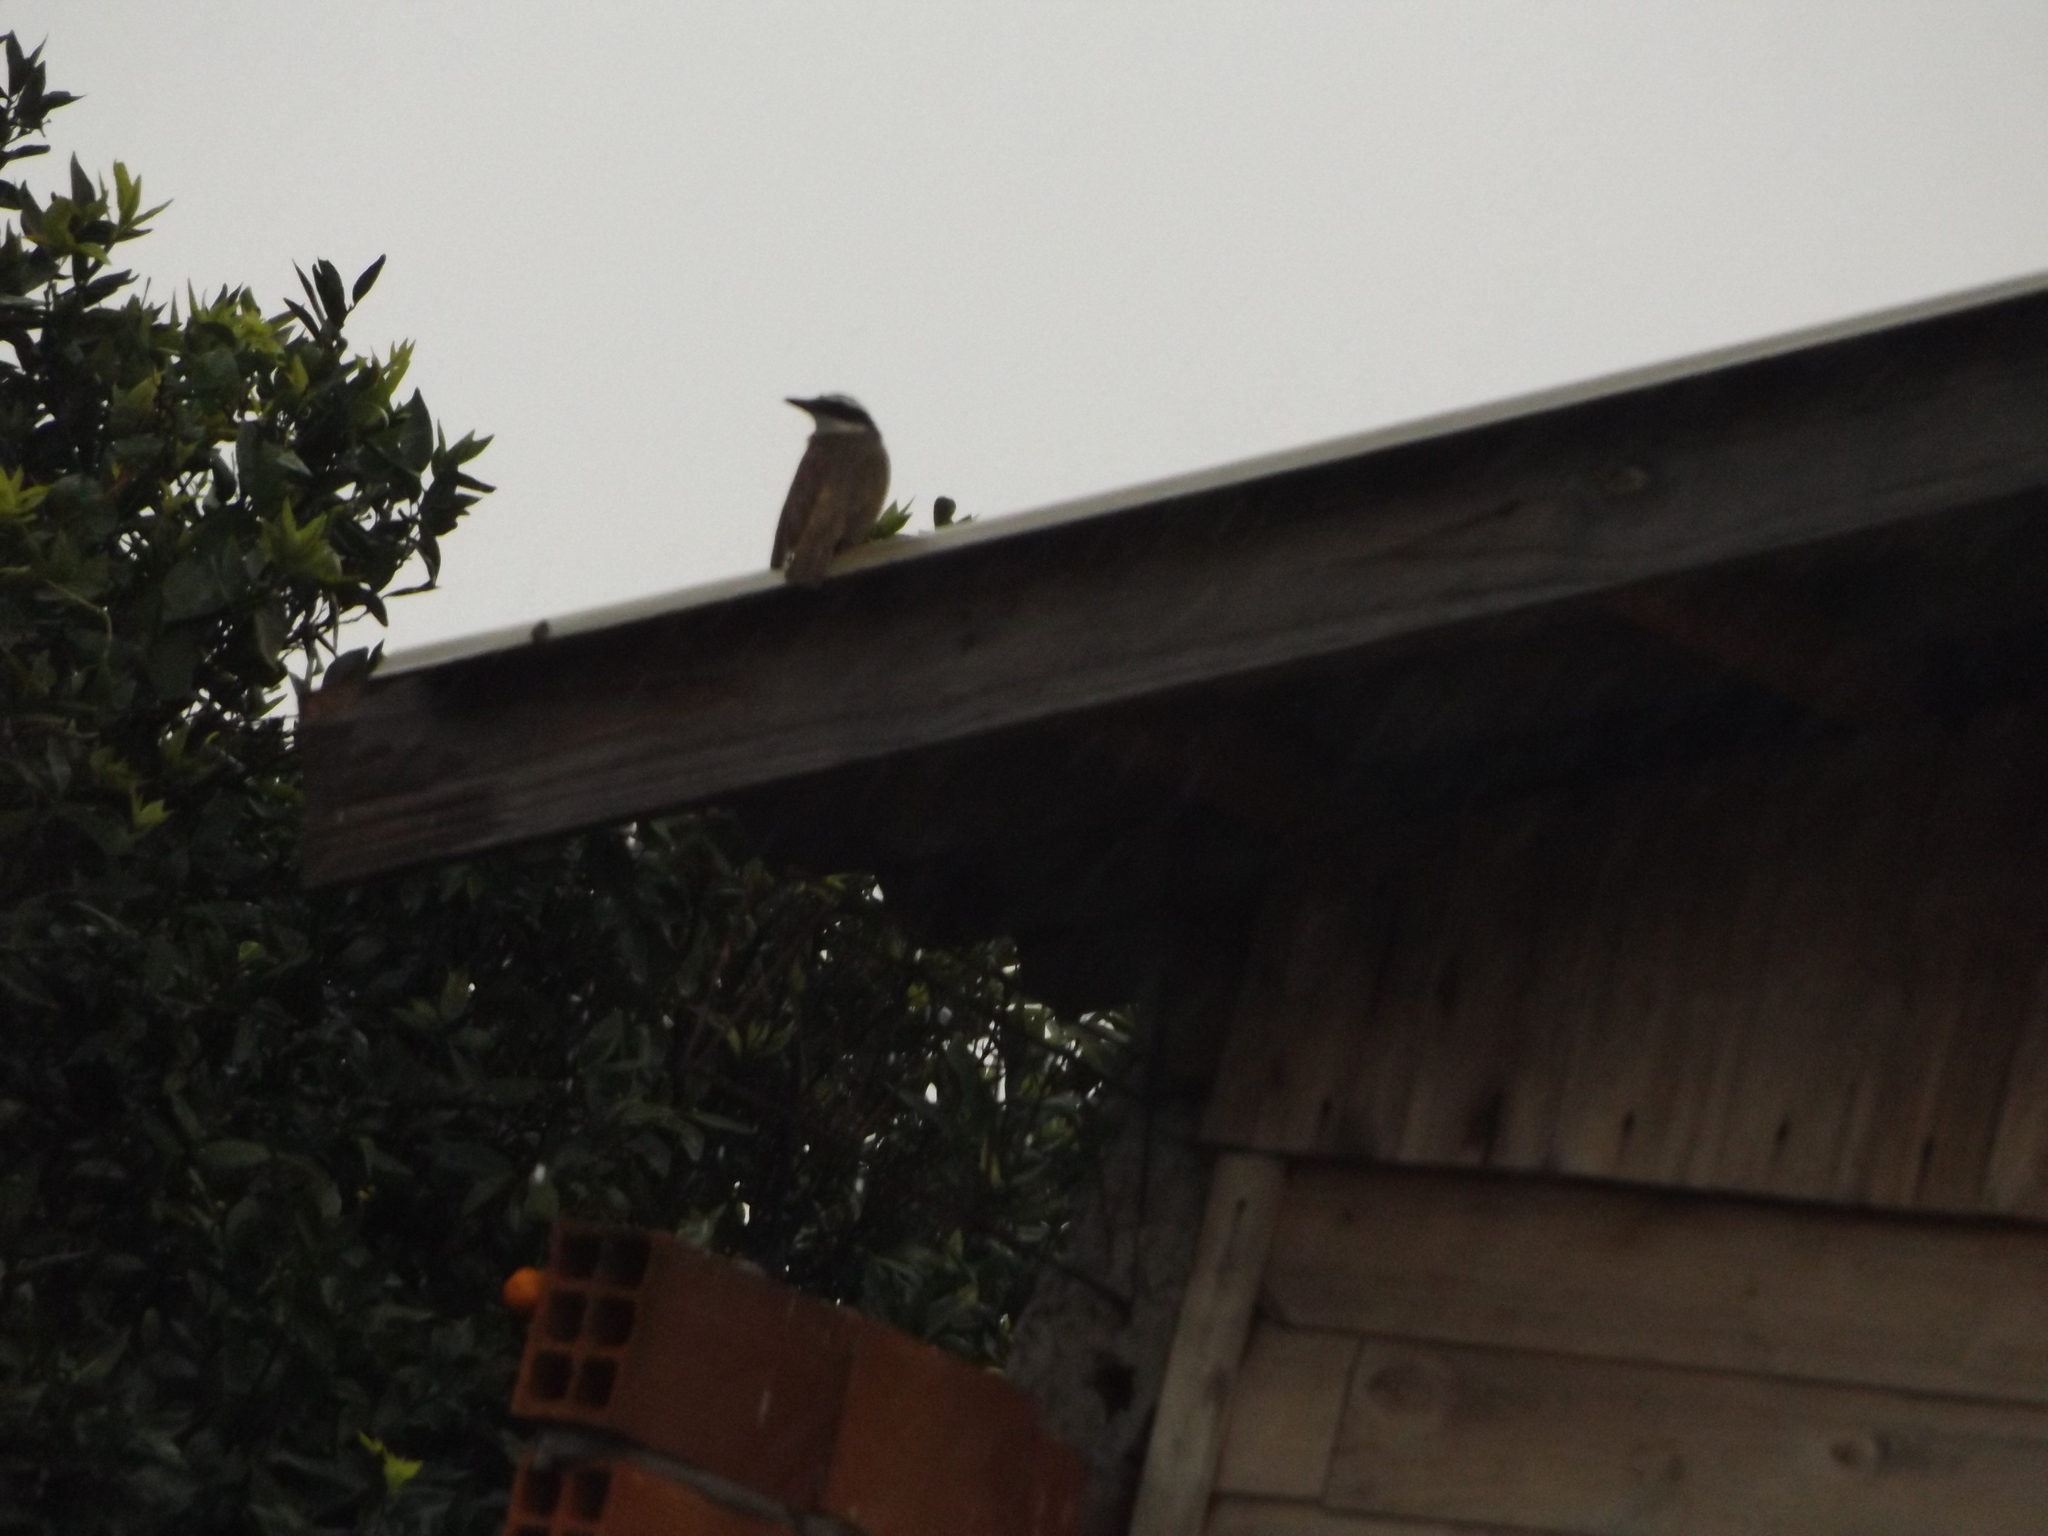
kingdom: Animalia
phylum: Chordata
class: Aves
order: Passeriformes
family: Tyrannidae
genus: Pitangus
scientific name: Pitangus sulphuratus
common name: Great kiskadee
